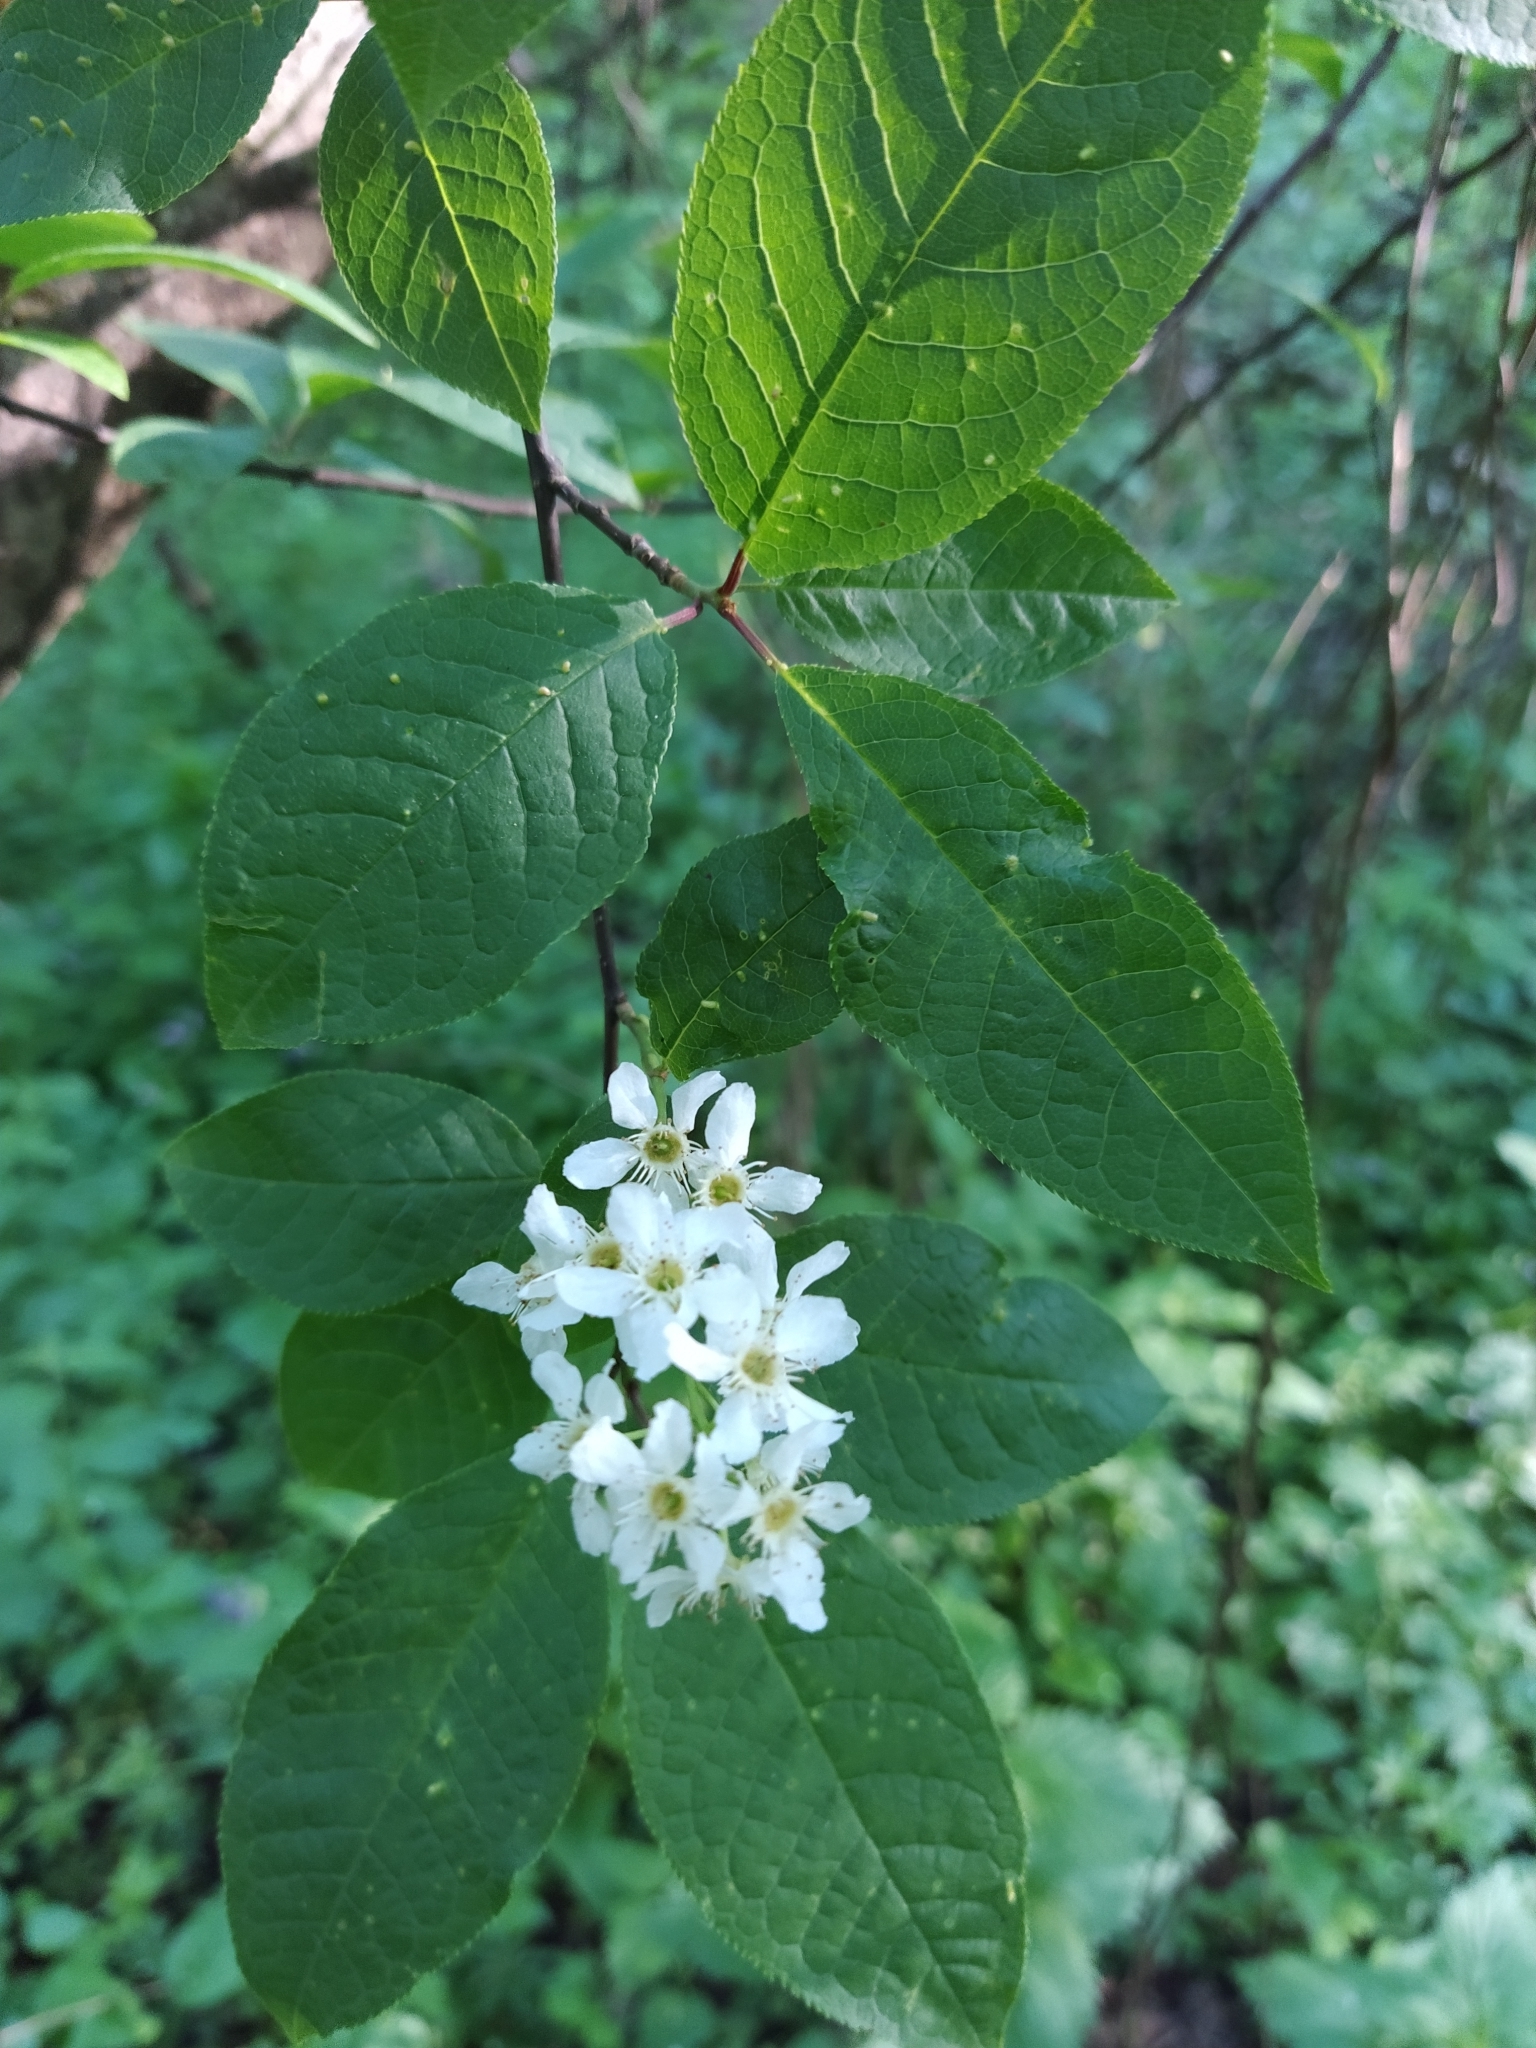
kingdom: Plantae
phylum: Tracheophyta
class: Magnoliopsida
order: Rosales
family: Rosaceae
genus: Prunus
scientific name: Prunus padus
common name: Bird cherry
